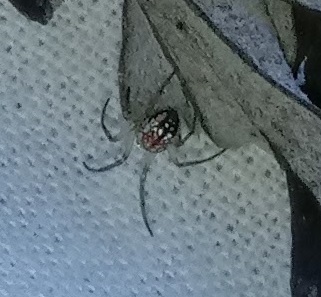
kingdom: Animalia
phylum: Arthropoda
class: Arachnida
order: Araneae
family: Tetragnathidae
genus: Leucauge
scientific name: Leucauge venusta
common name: Longjawed orb weavers
